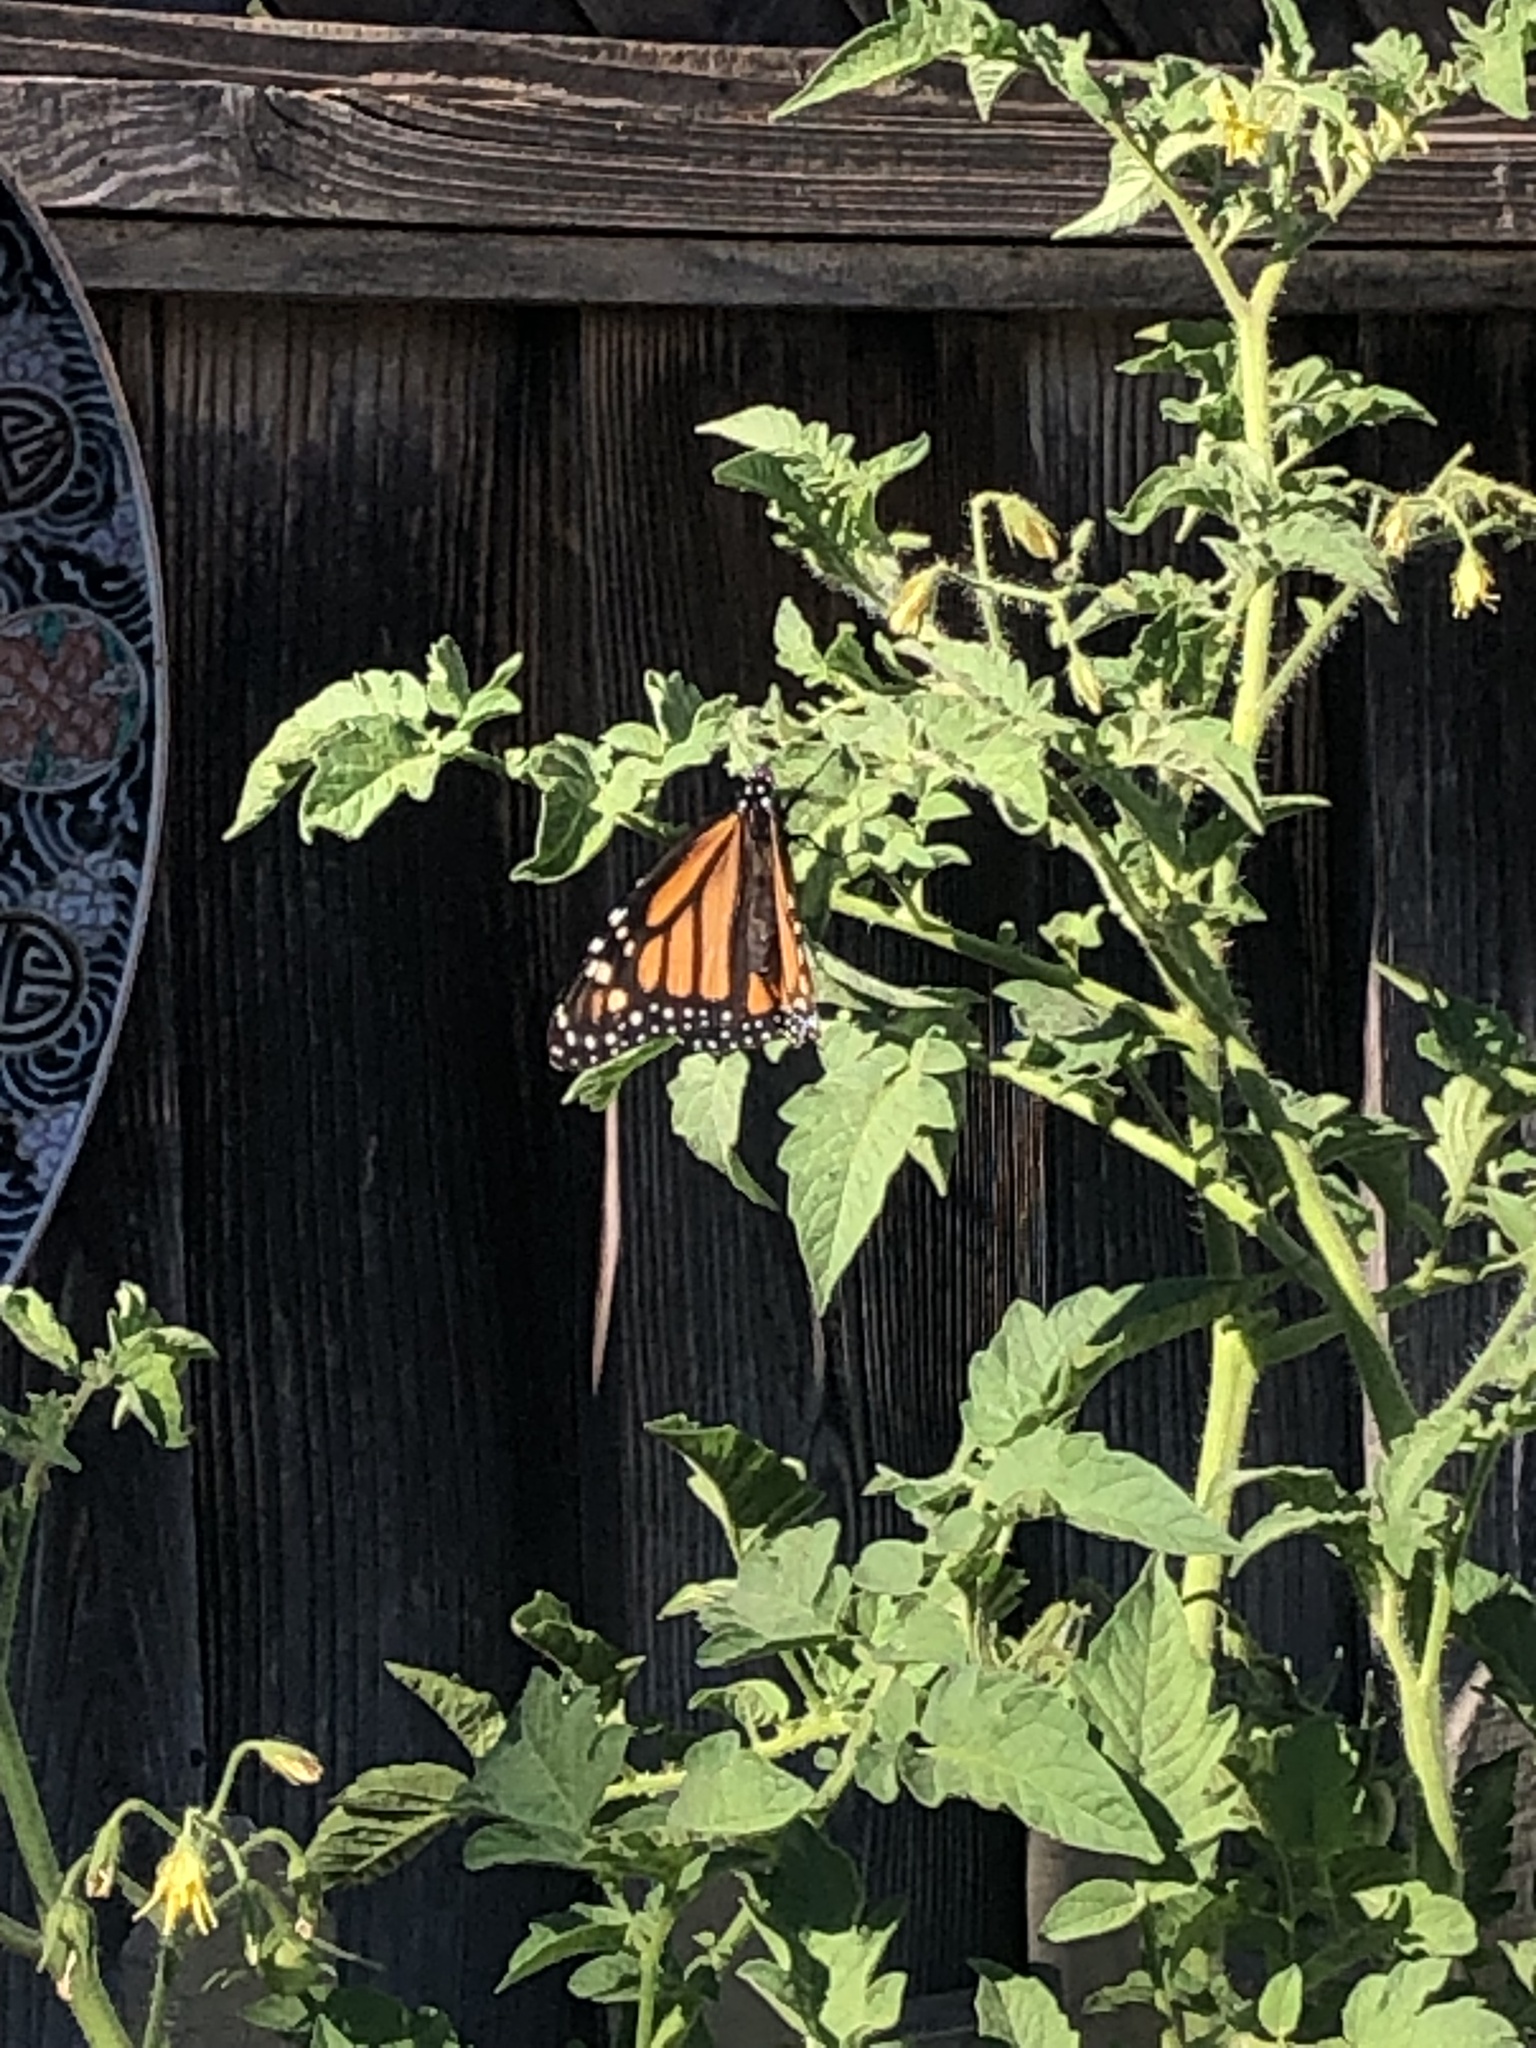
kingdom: Animalia
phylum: Arthropoda
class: Insecta
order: Lepidoptera
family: Nymphalidae
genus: Danaus
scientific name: Danaus plexippus
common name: Monarch
